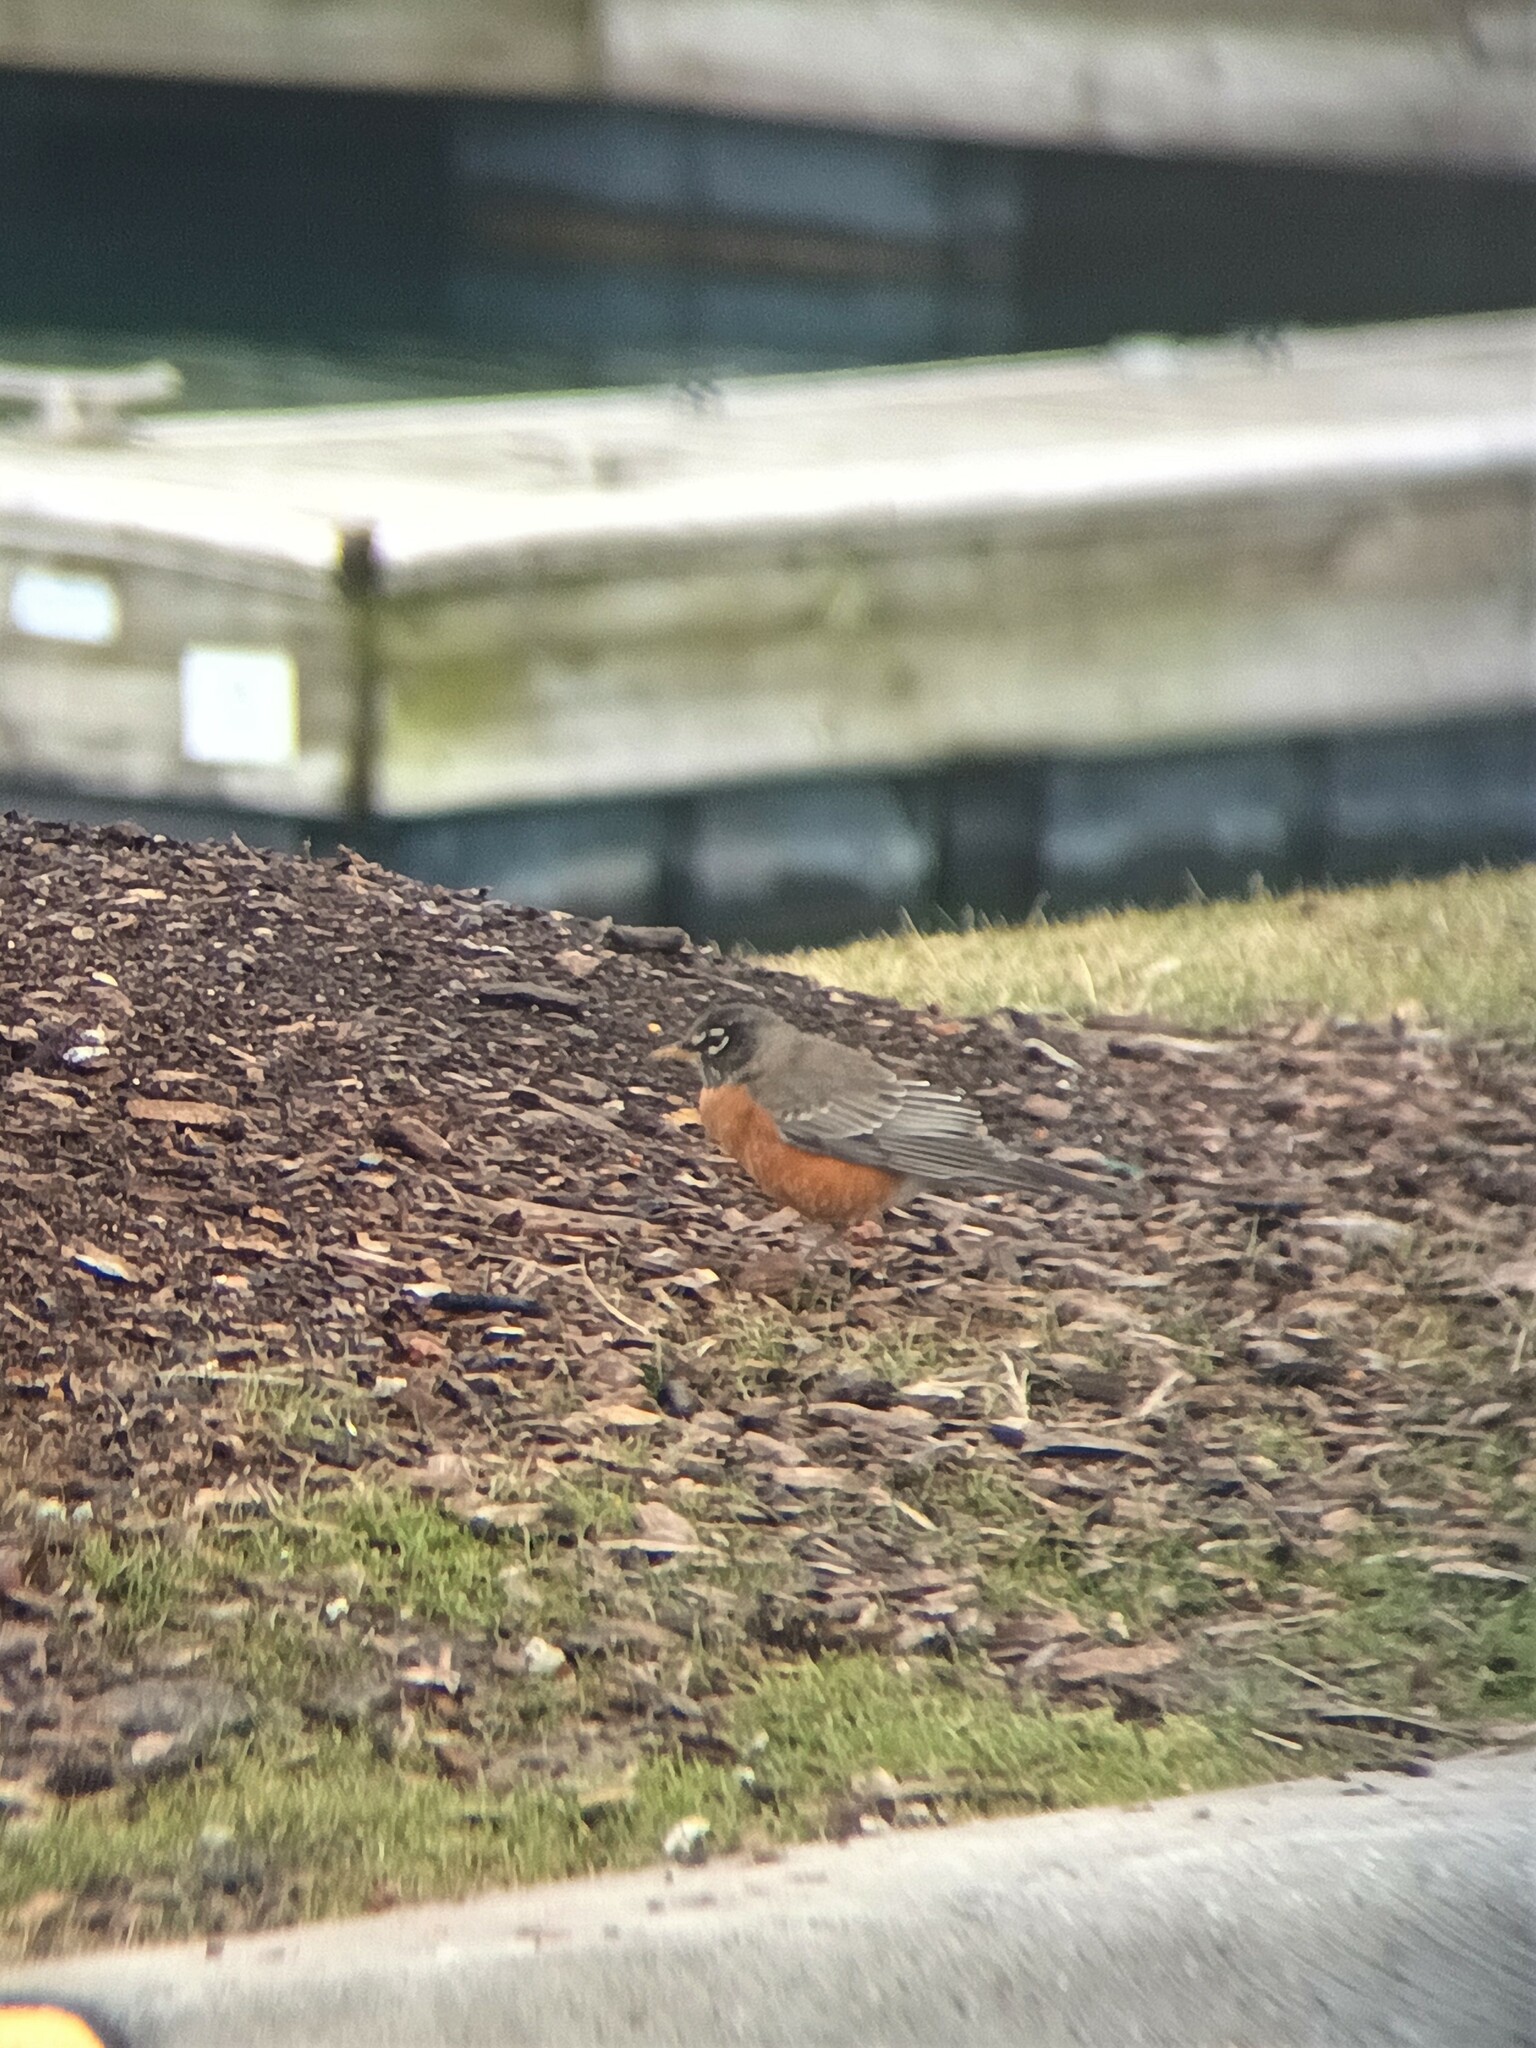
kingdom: Animalia
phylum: Chordata
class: Aves
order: Passeriformes
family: Turdidae
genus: Turdus
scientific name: Turdus migratorius
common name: American robin
